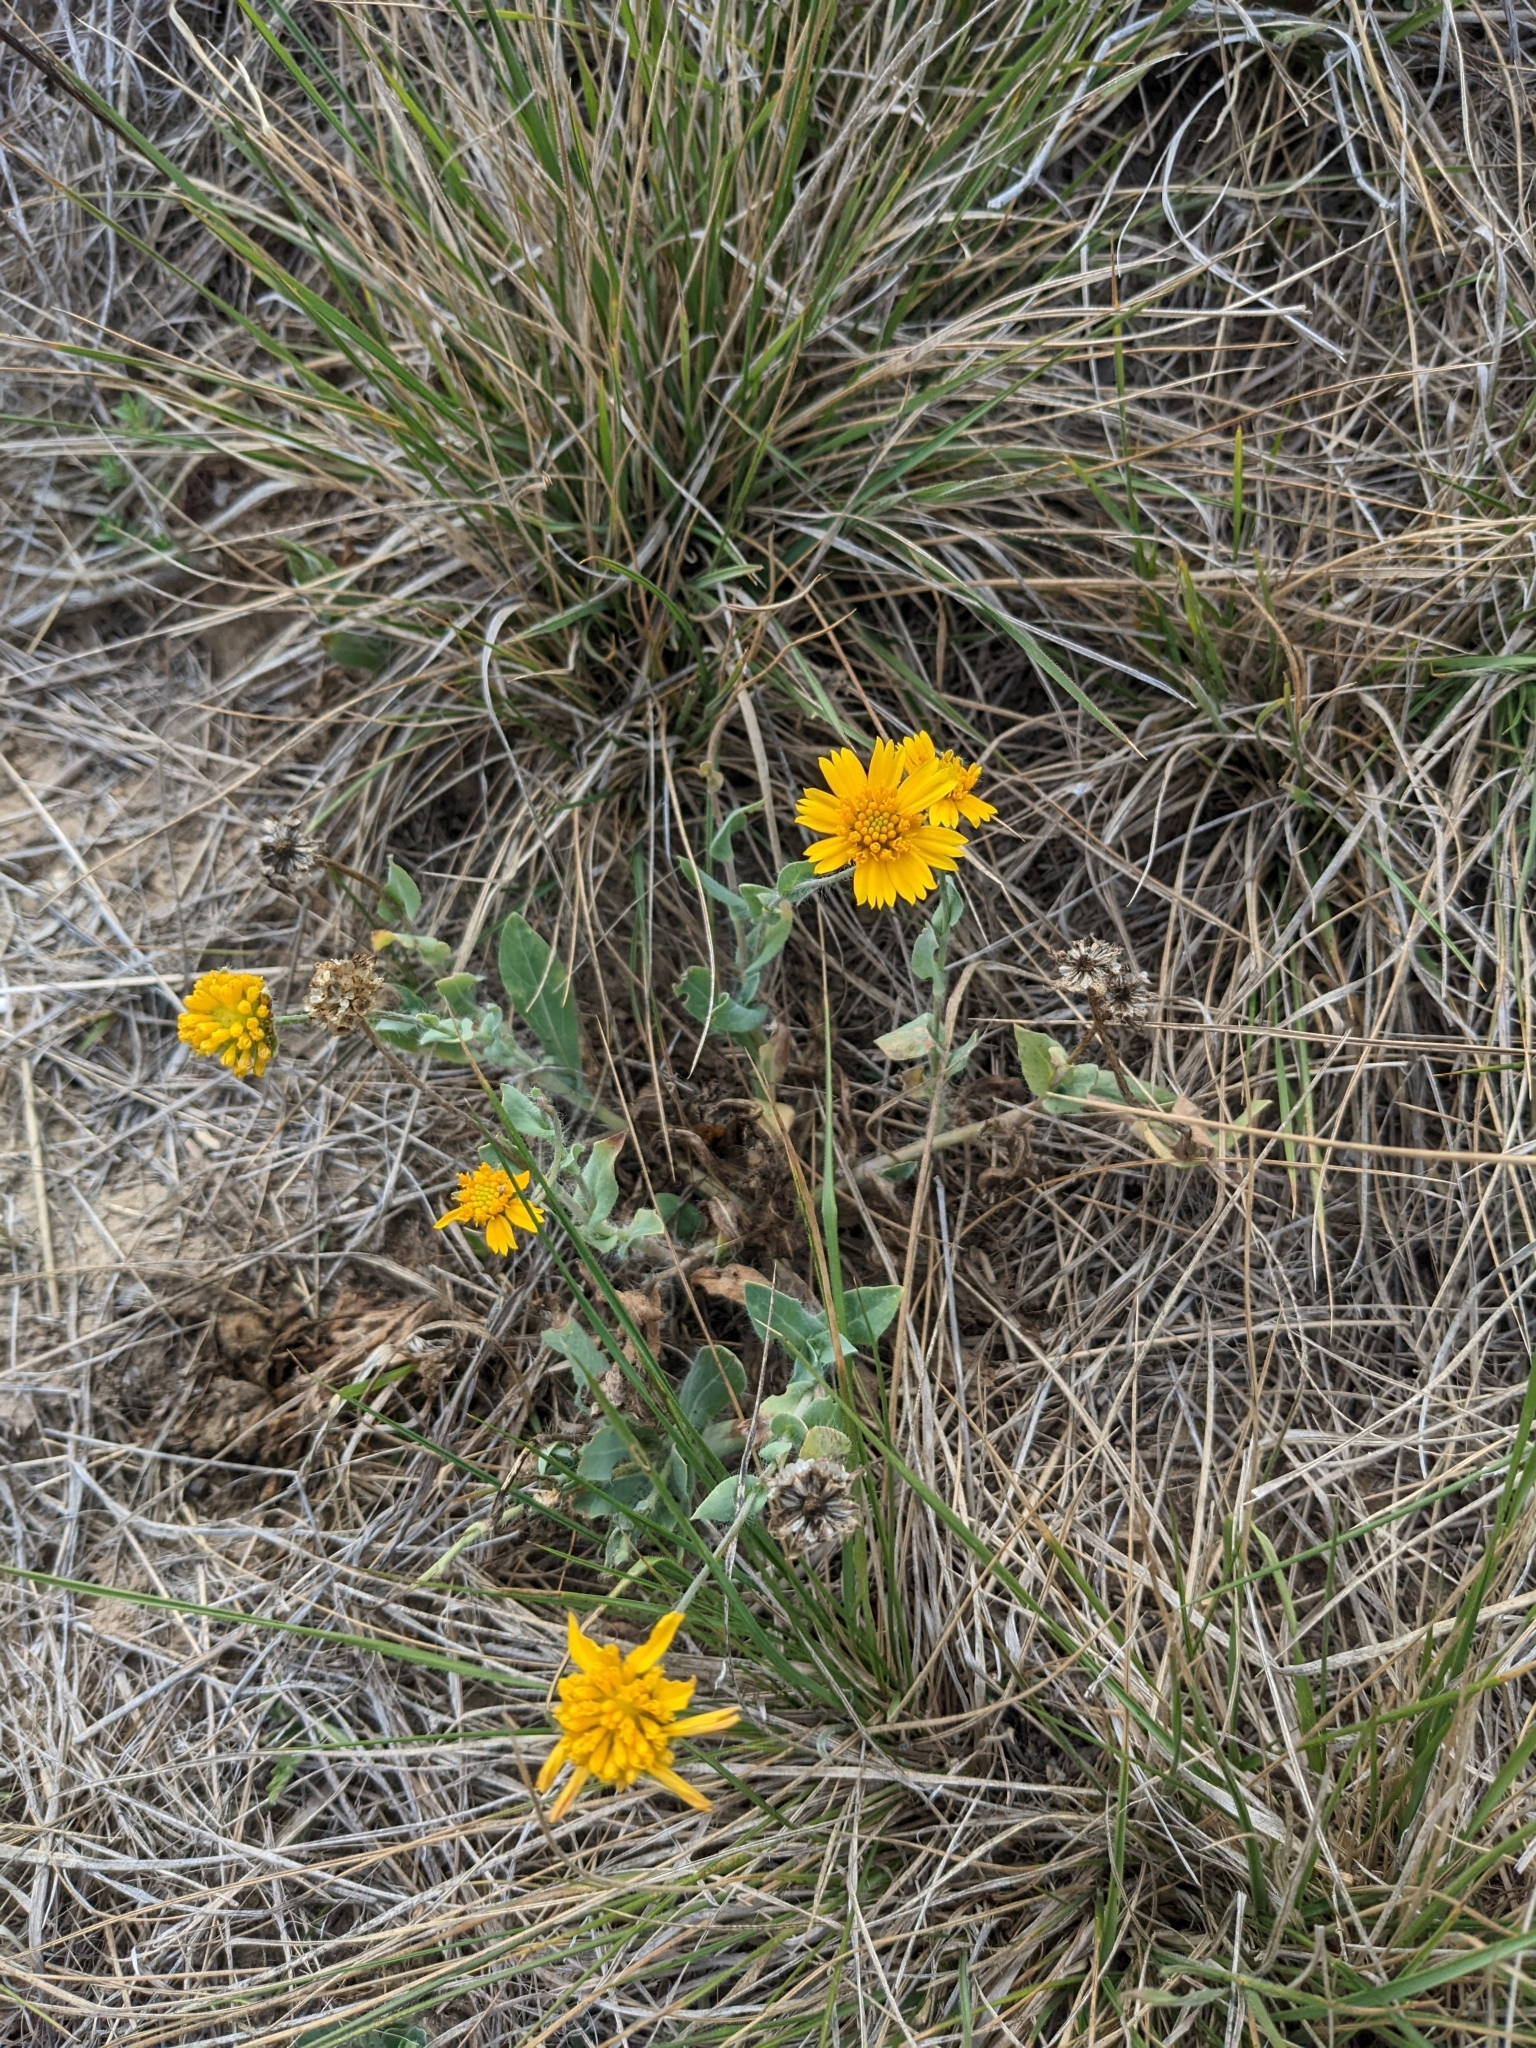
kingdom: Plantae
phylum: Tracheophyta
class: Magnoliopsida
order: Asterales
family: Asteraceae
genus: Amblyolepis
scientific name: Amblyolepis setigera
